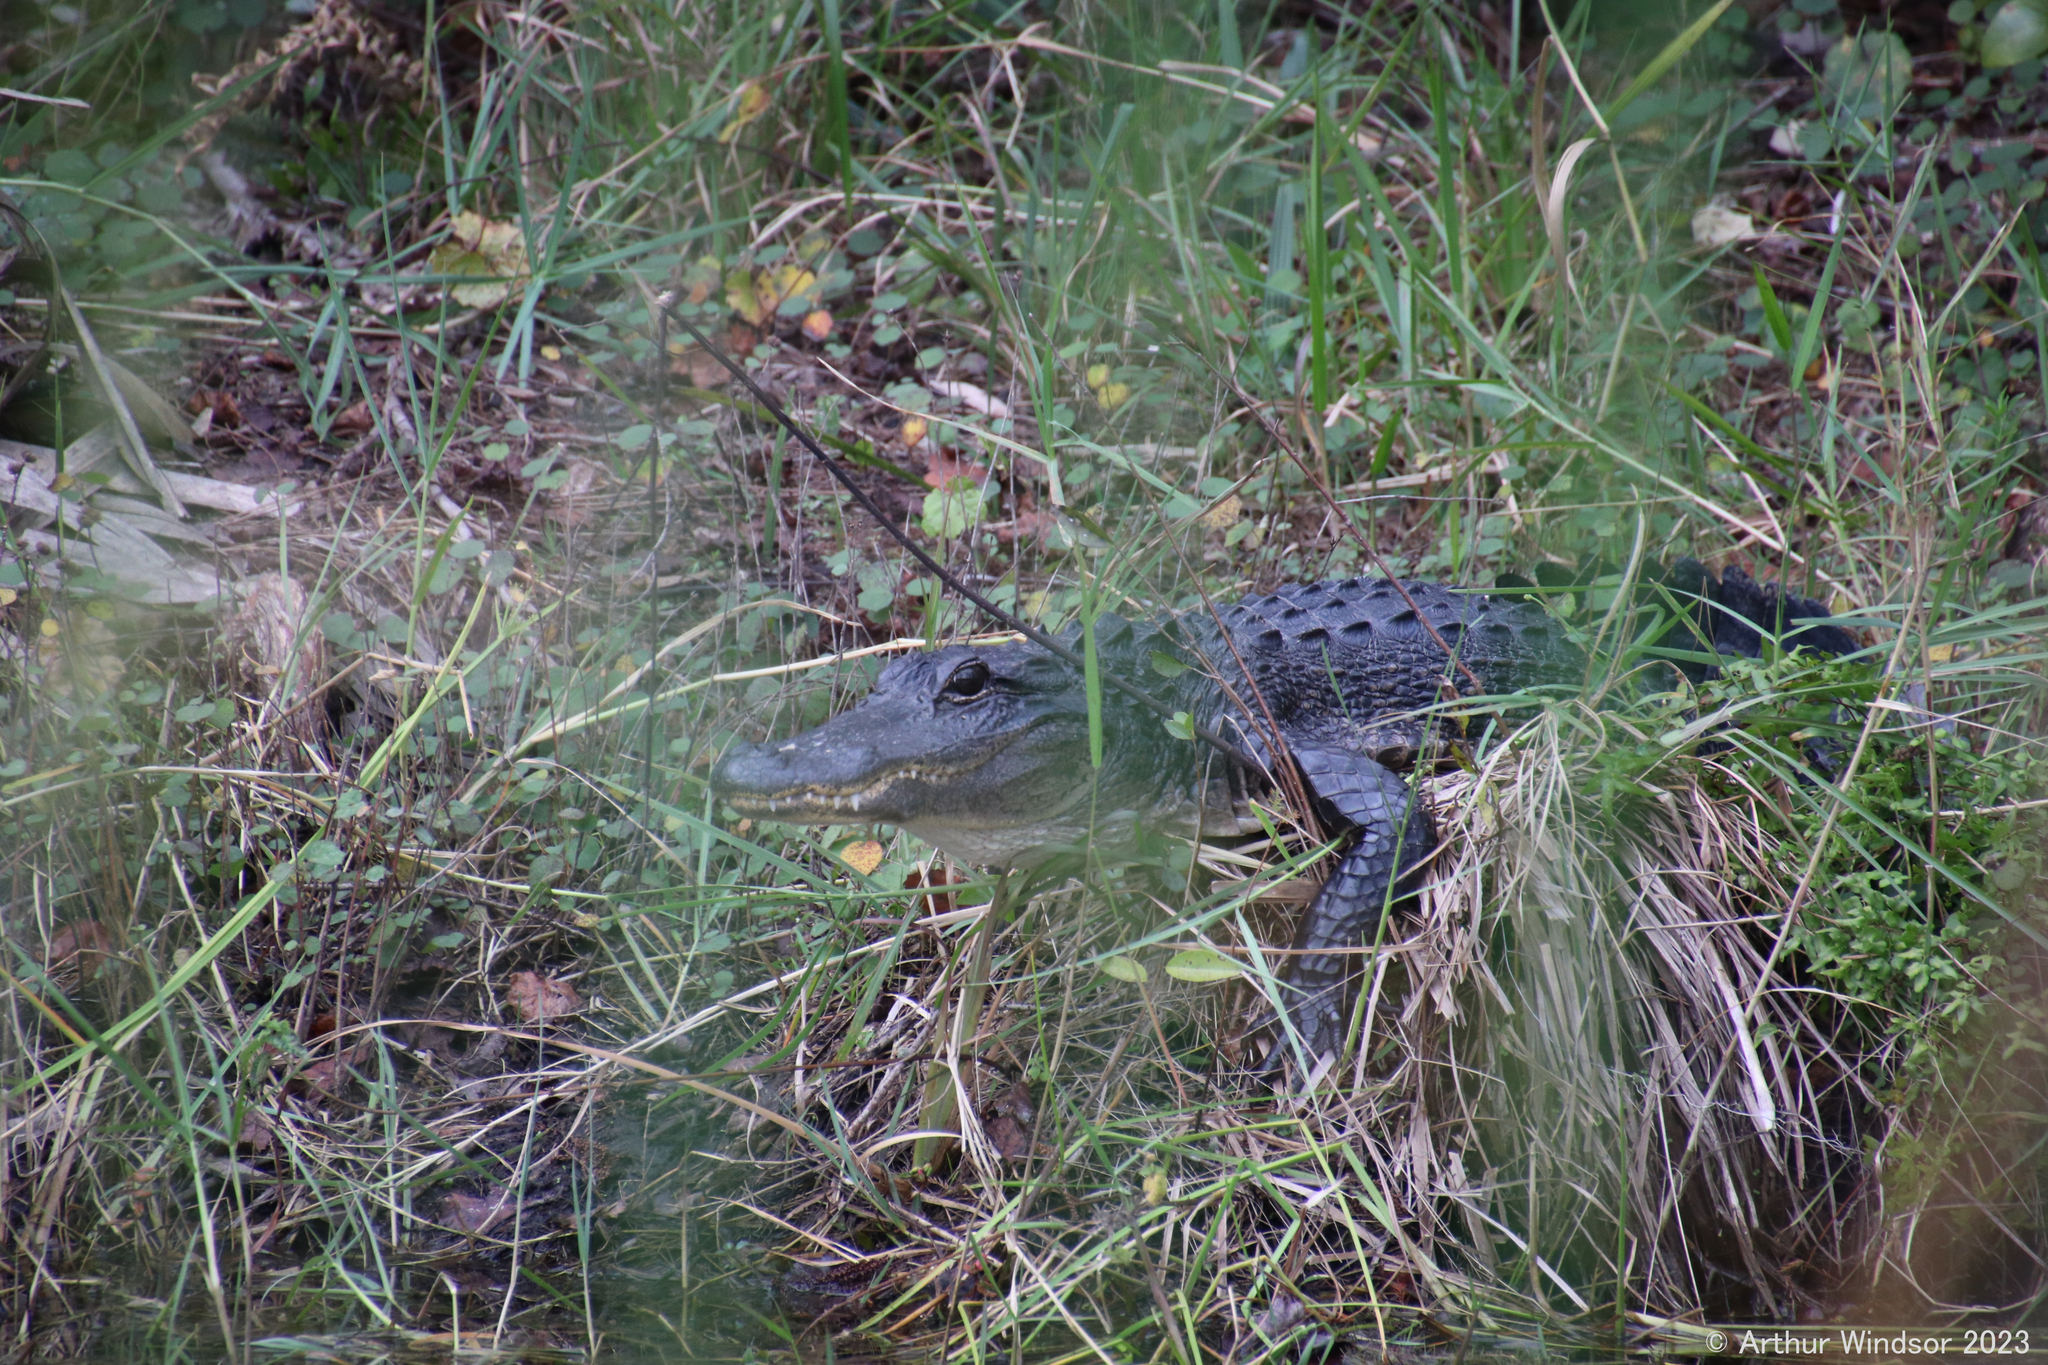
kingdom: Animalia
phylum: Chordata
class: Crocodylia
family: Alligatoridae
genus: Alligator
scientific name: Alligator mississippiensis
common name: American alligator
